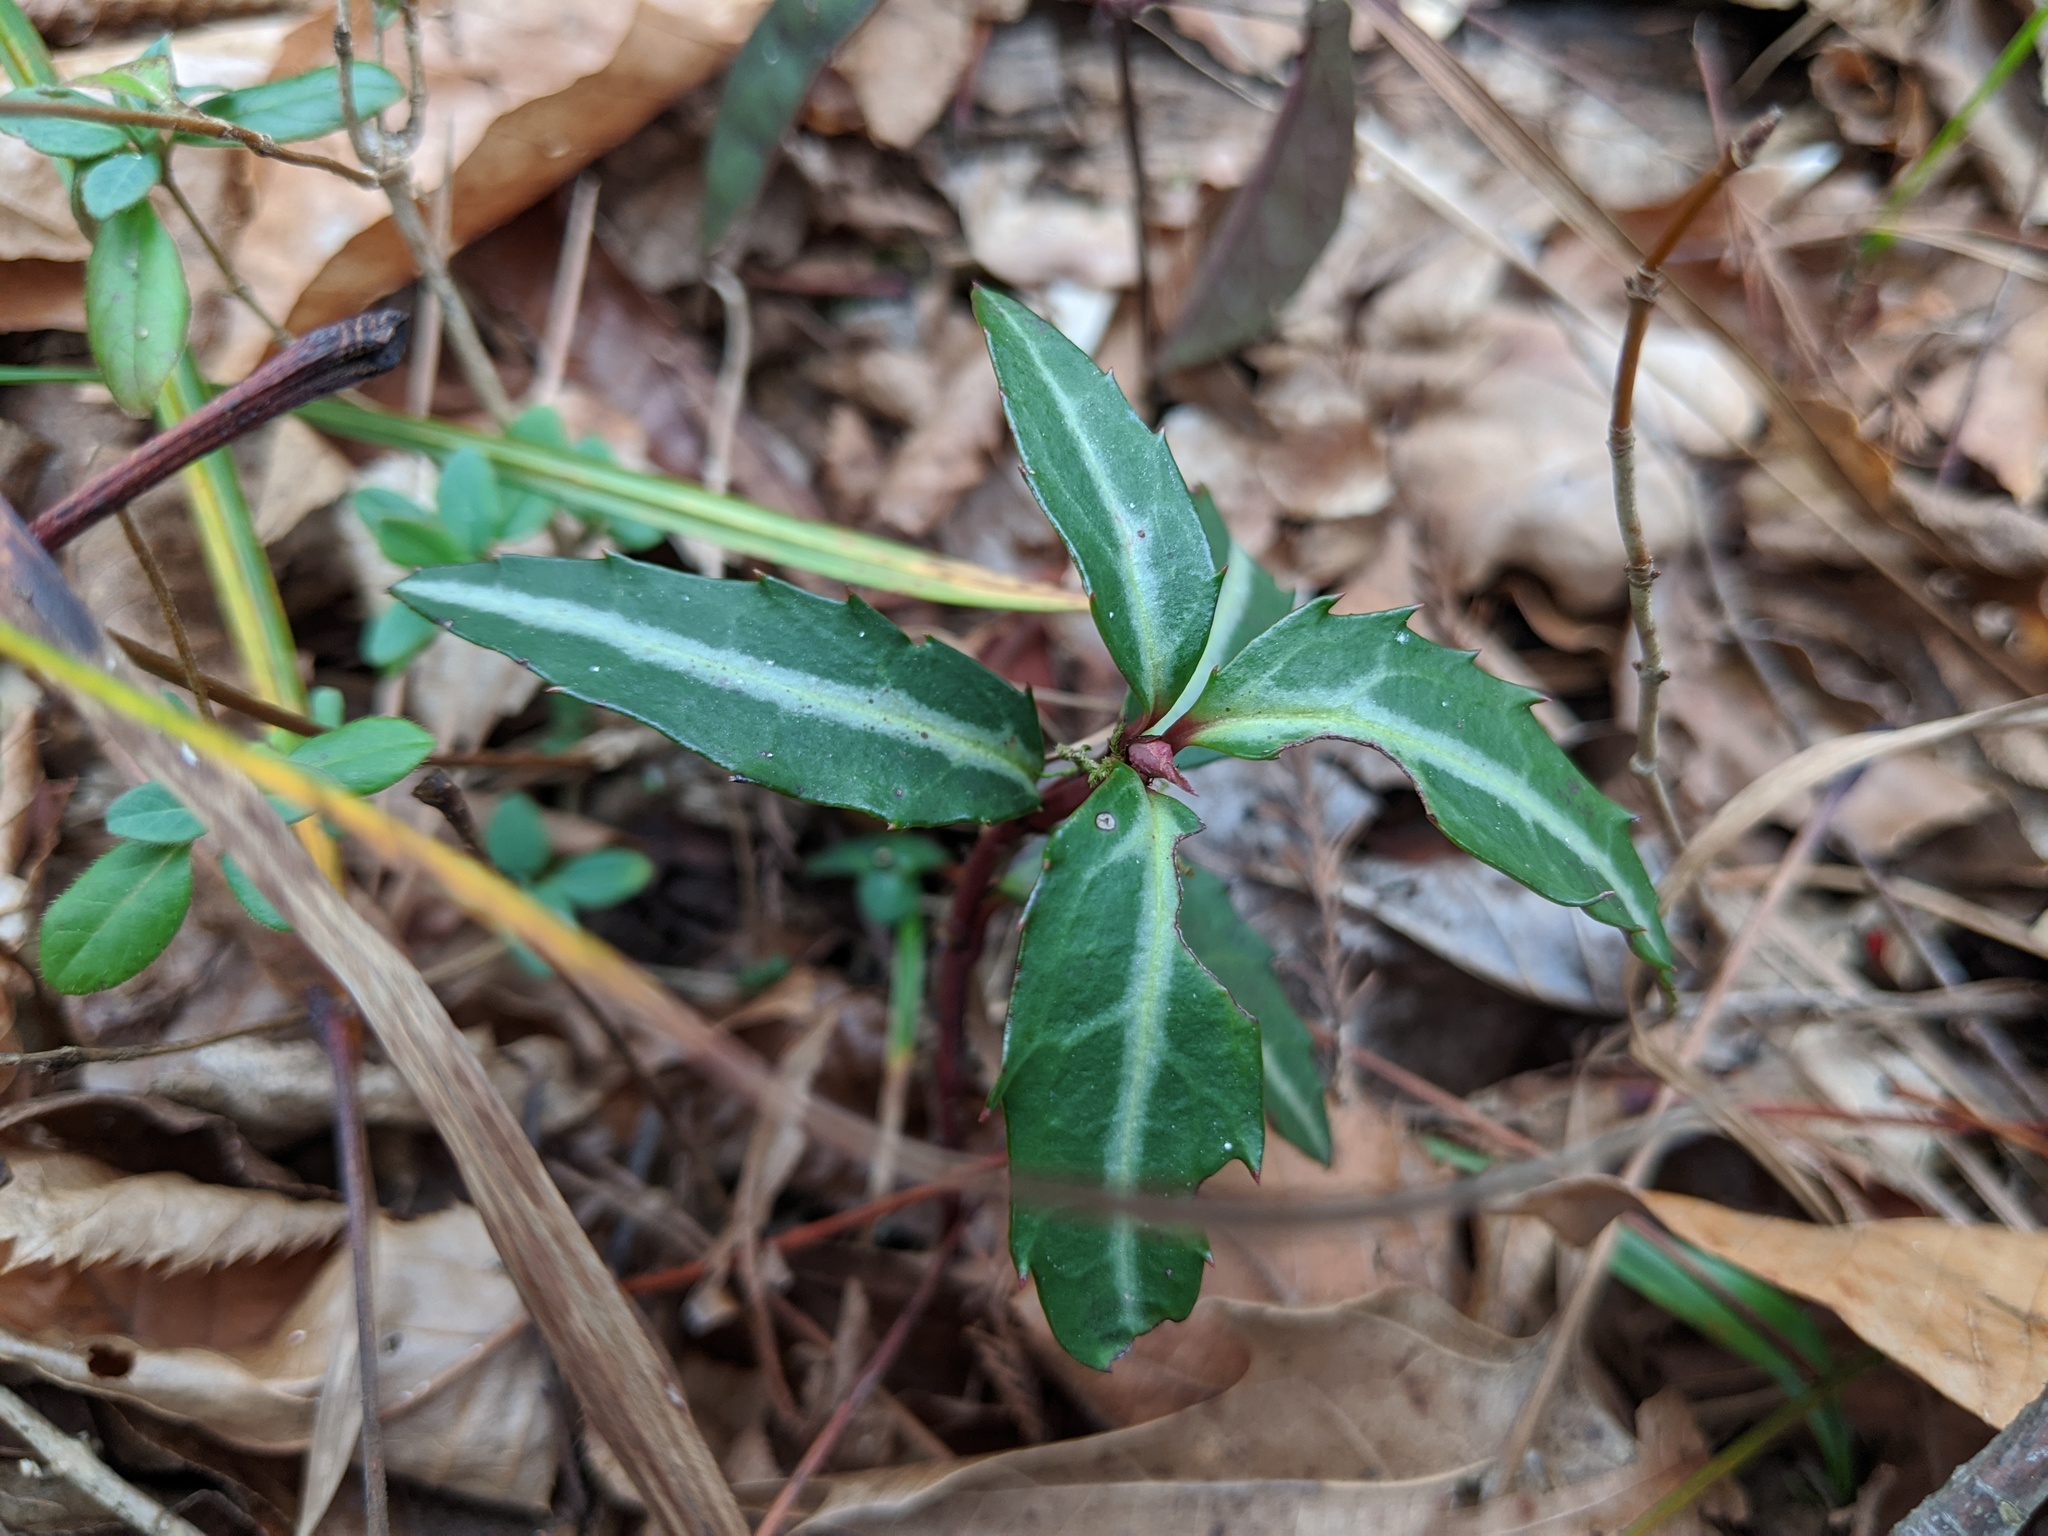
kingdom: Plantae
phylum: Tracheophyta
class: Magnoliopsida
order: Ericales
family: Ericaceae
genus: Chimaphila
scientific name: Chimaphila maculata
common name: Spotted pipsissewa
